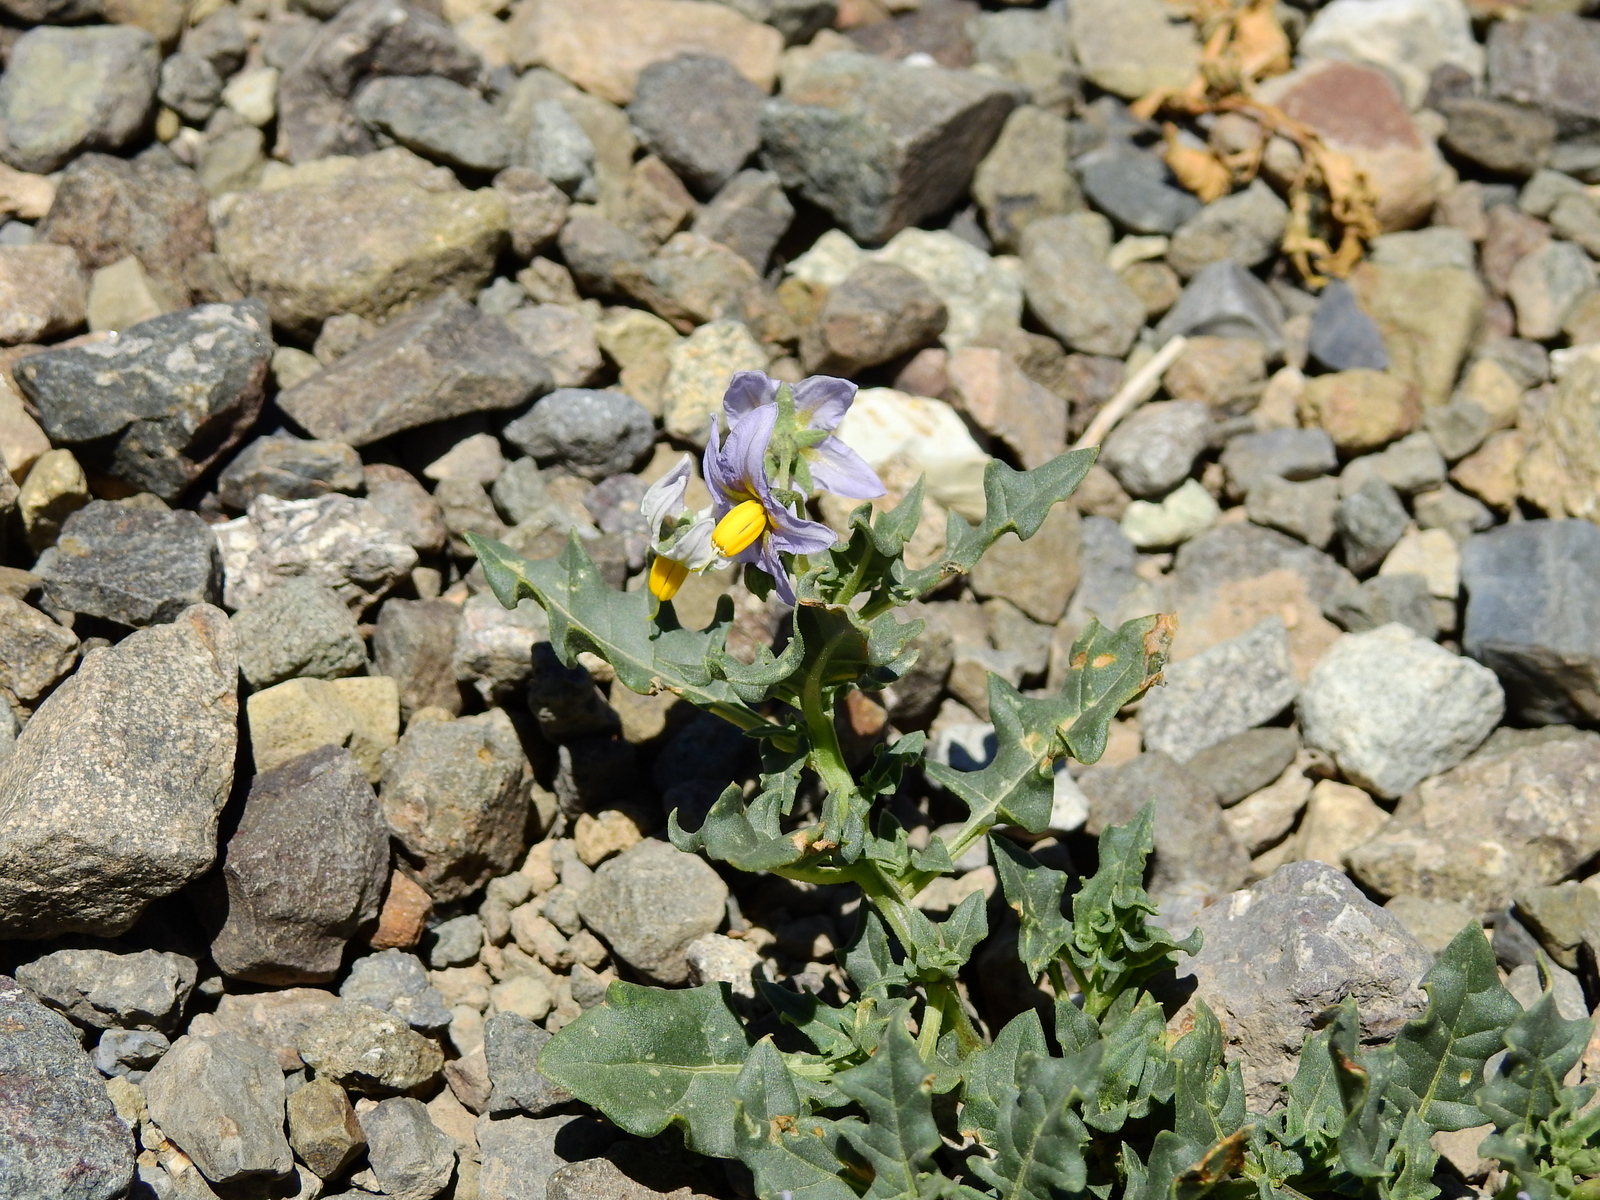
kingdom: Plantae
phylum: Tracheophyta
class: Magnoliopsida
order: Solanales
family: Solanaceae
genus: Solanum
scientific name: Solanum echegarayi
